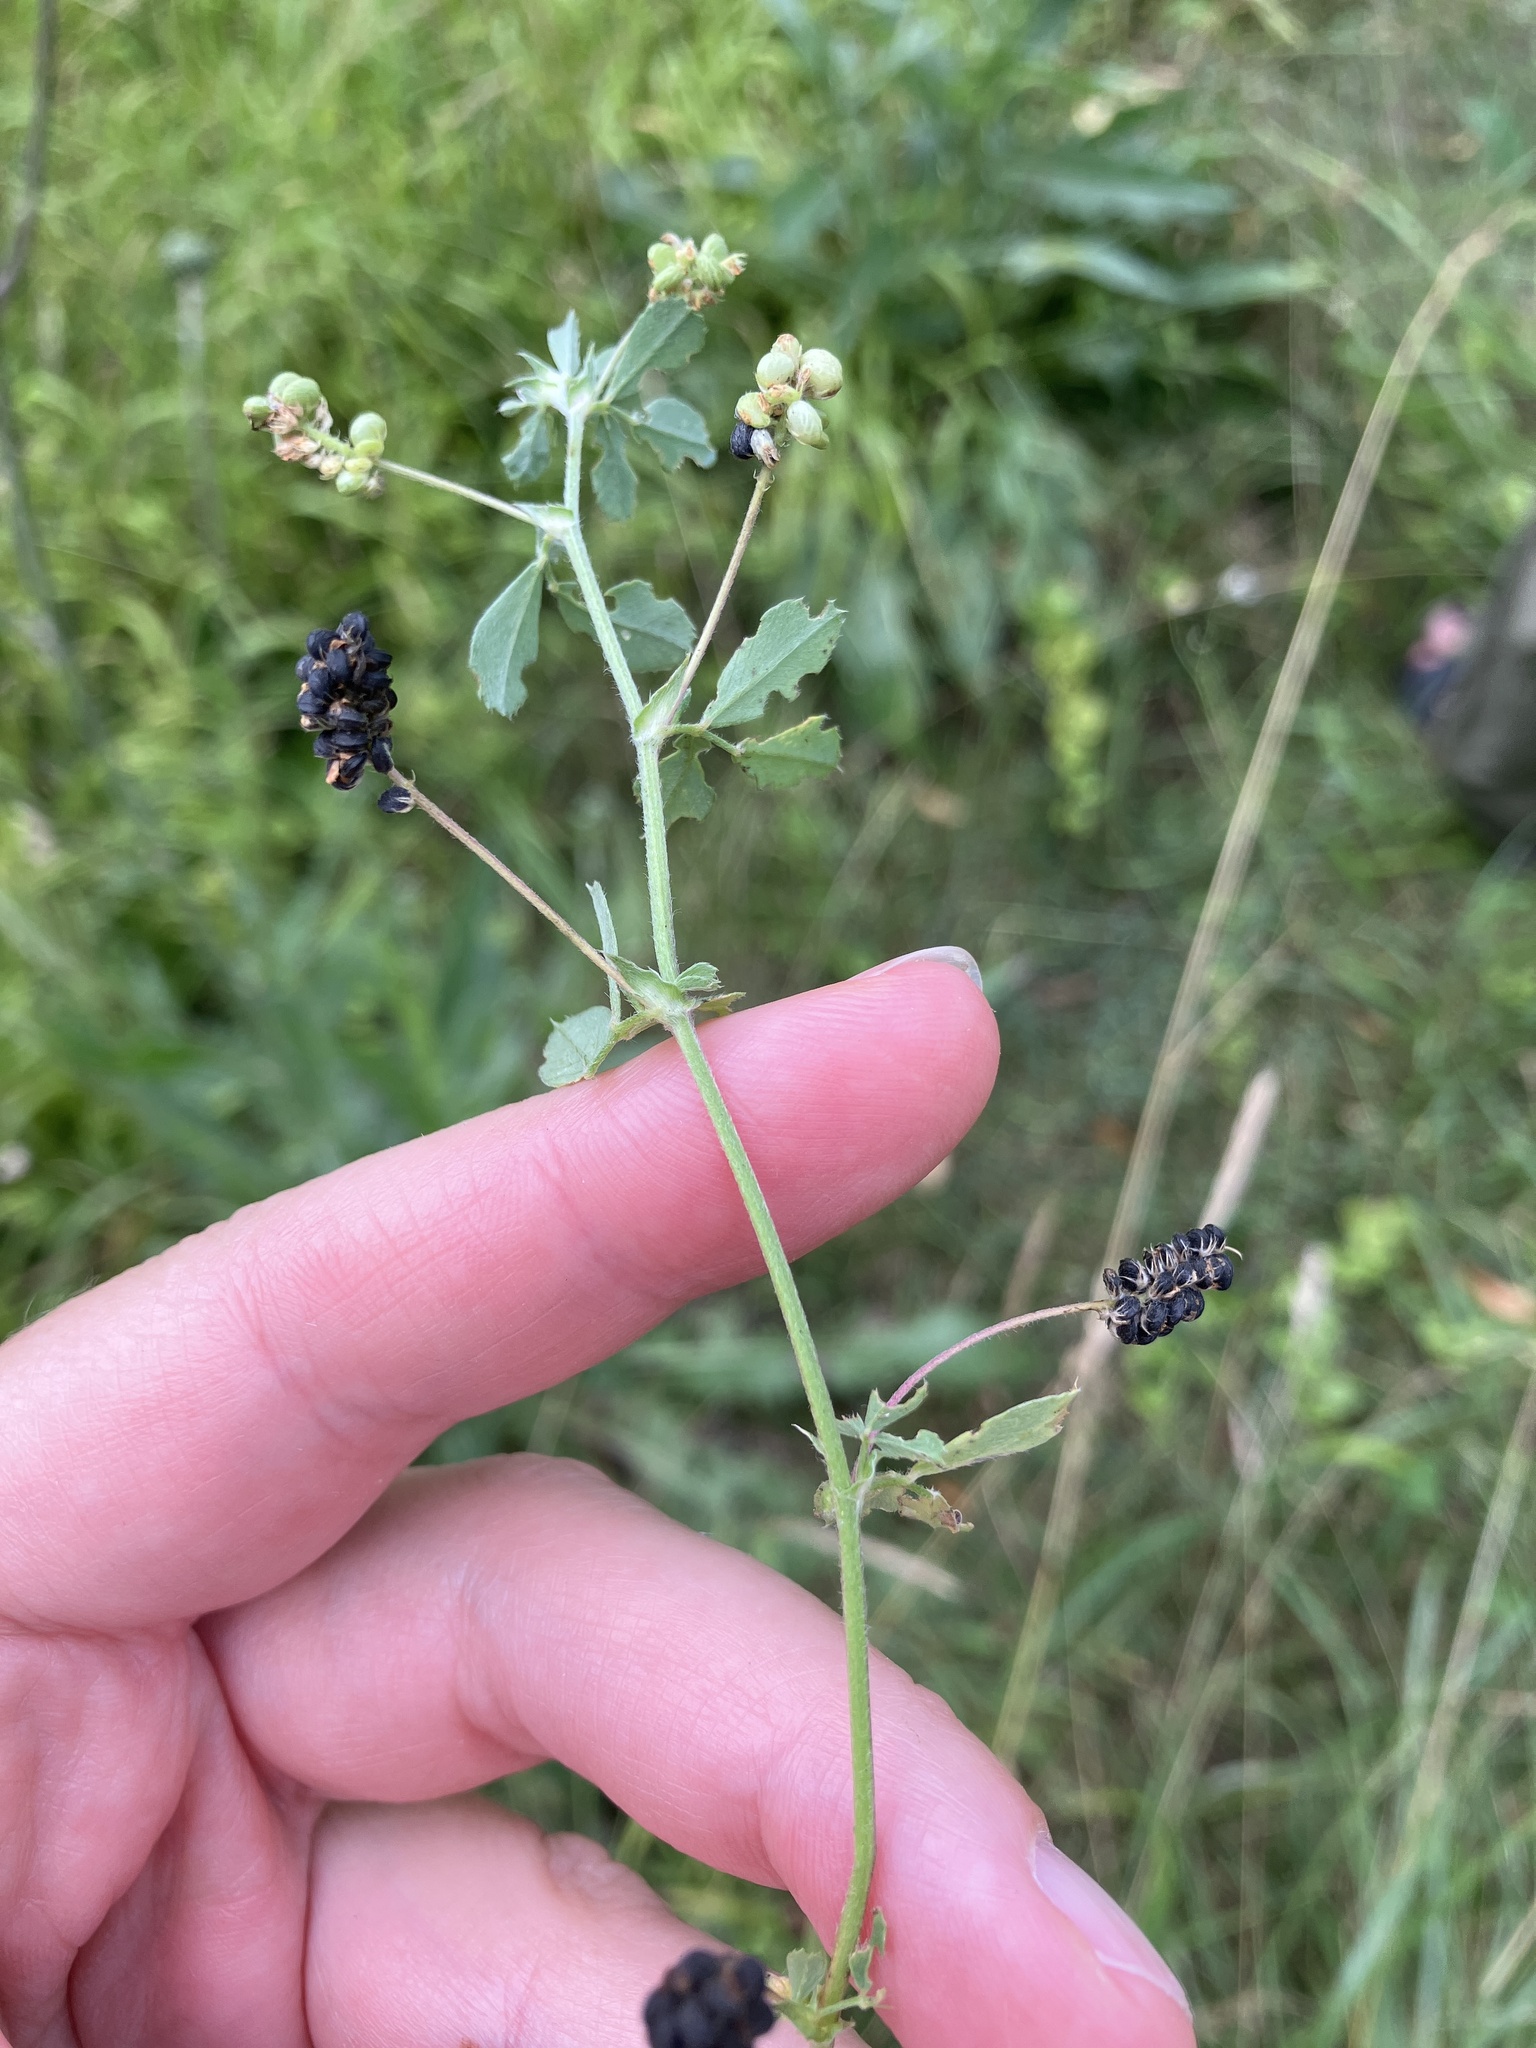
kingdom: Plantae
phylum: Tracheophyta
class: Magnoliopsida
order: Fabales
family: Fabaceae
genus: Medicago
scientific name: Medicago lupulina
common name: Black medick
